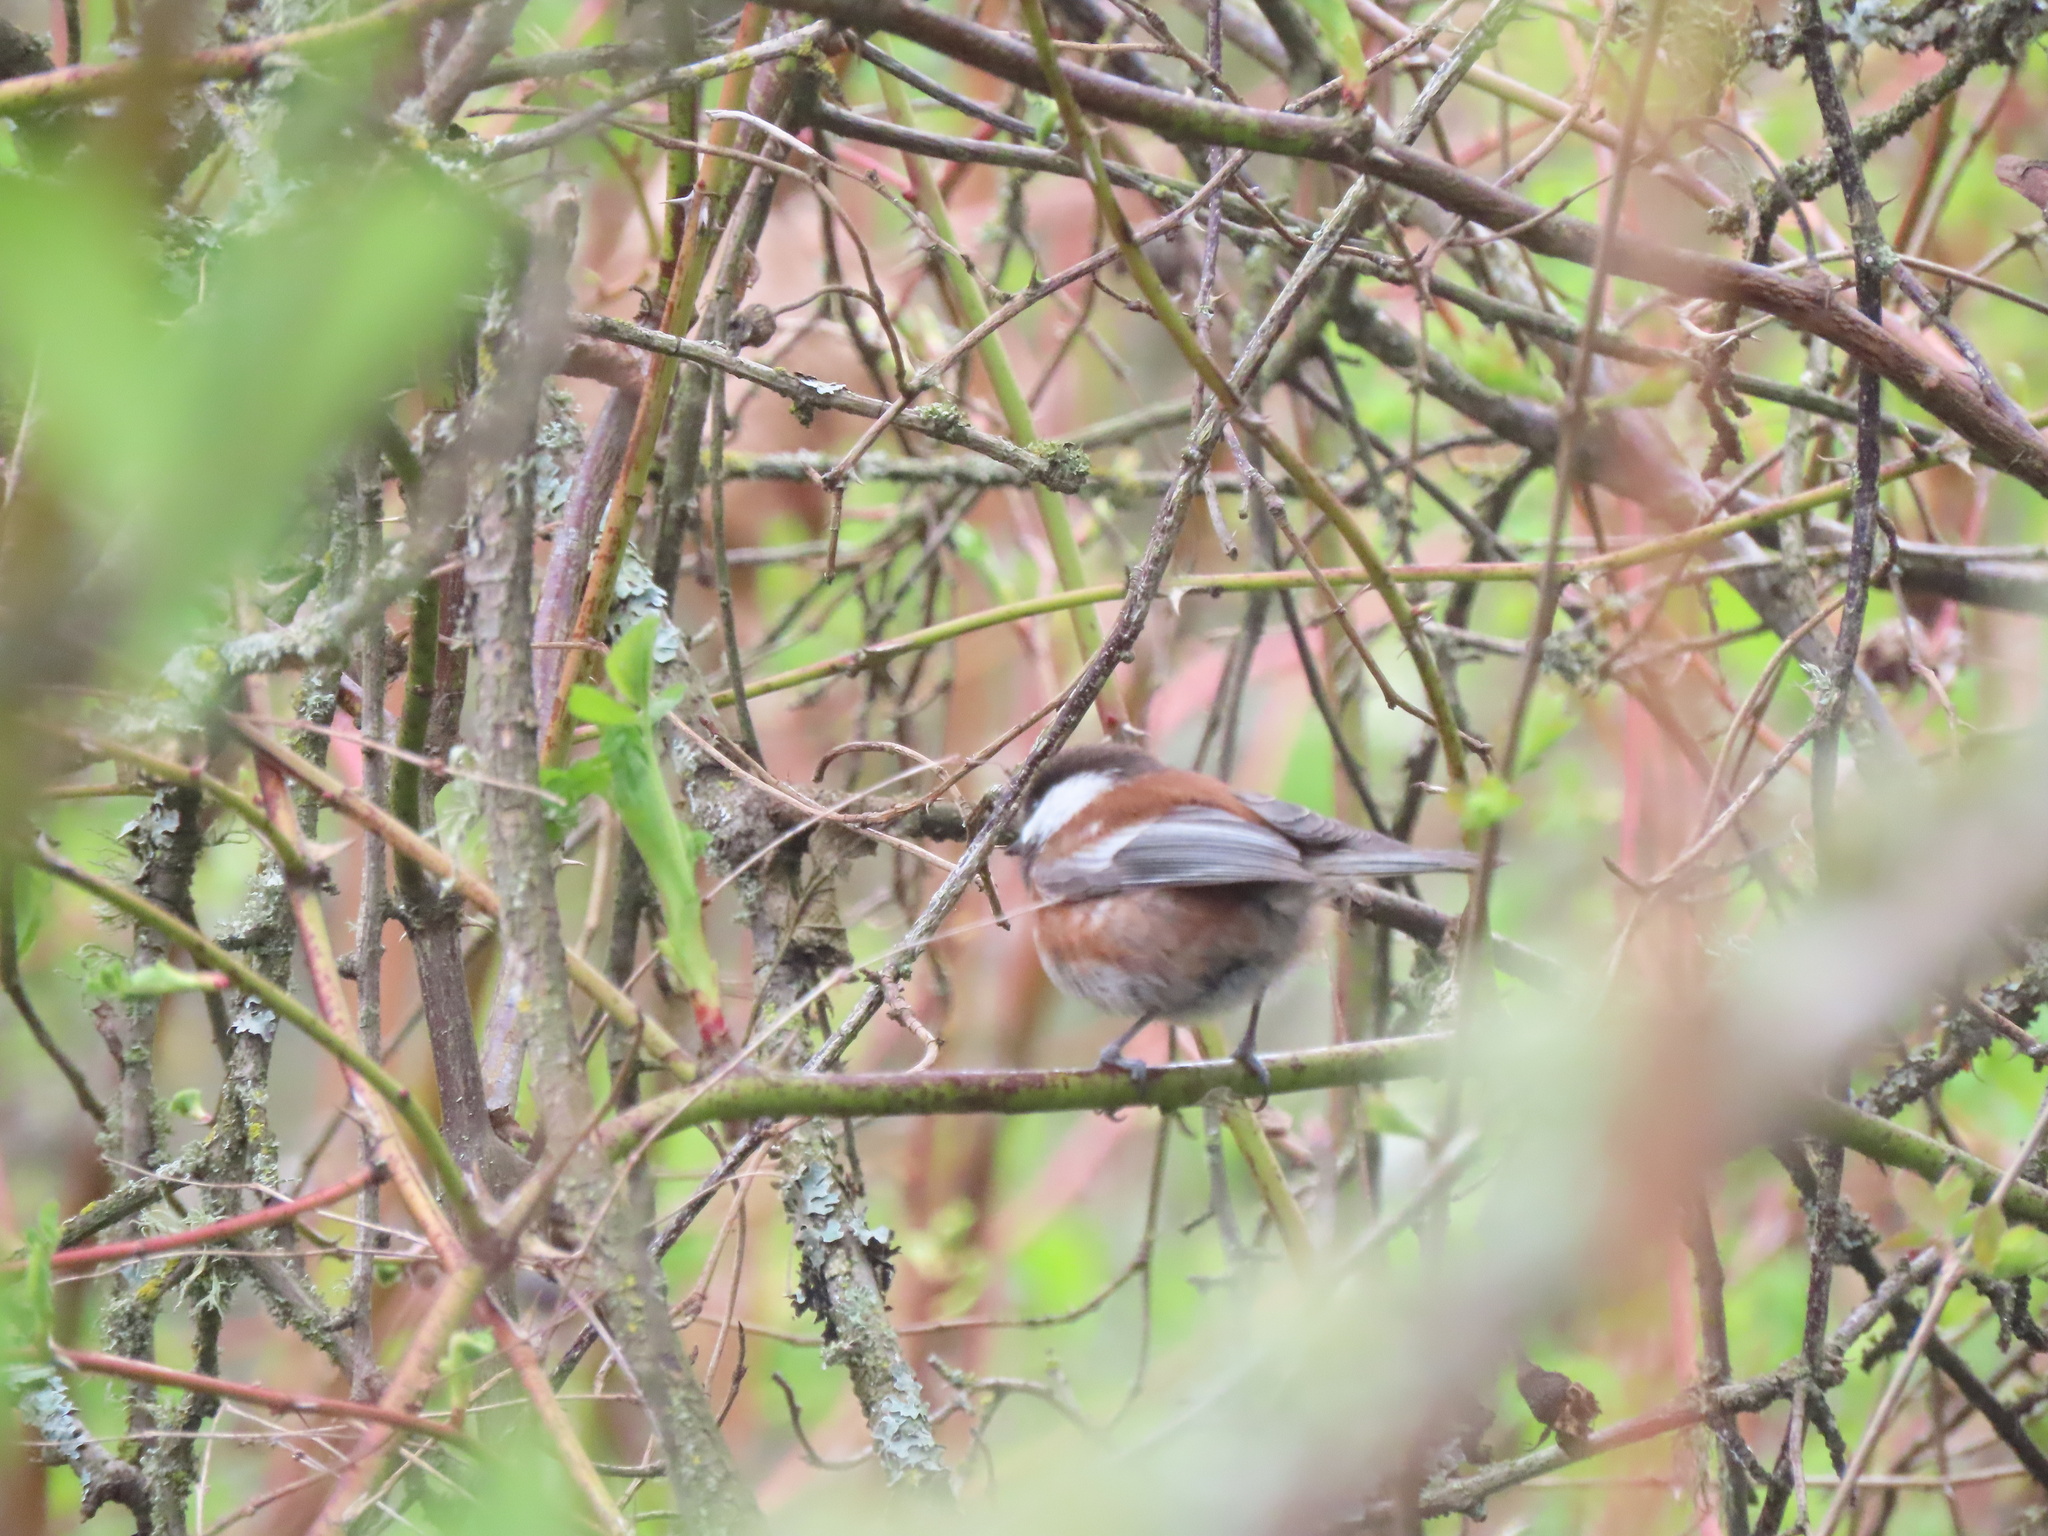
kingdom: Animalia
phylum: Chordata
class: Aves
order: Passeriformes
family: Paridae
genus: Poecile
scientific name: Poecile rufescens
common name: Chestnut-backed chickadee
